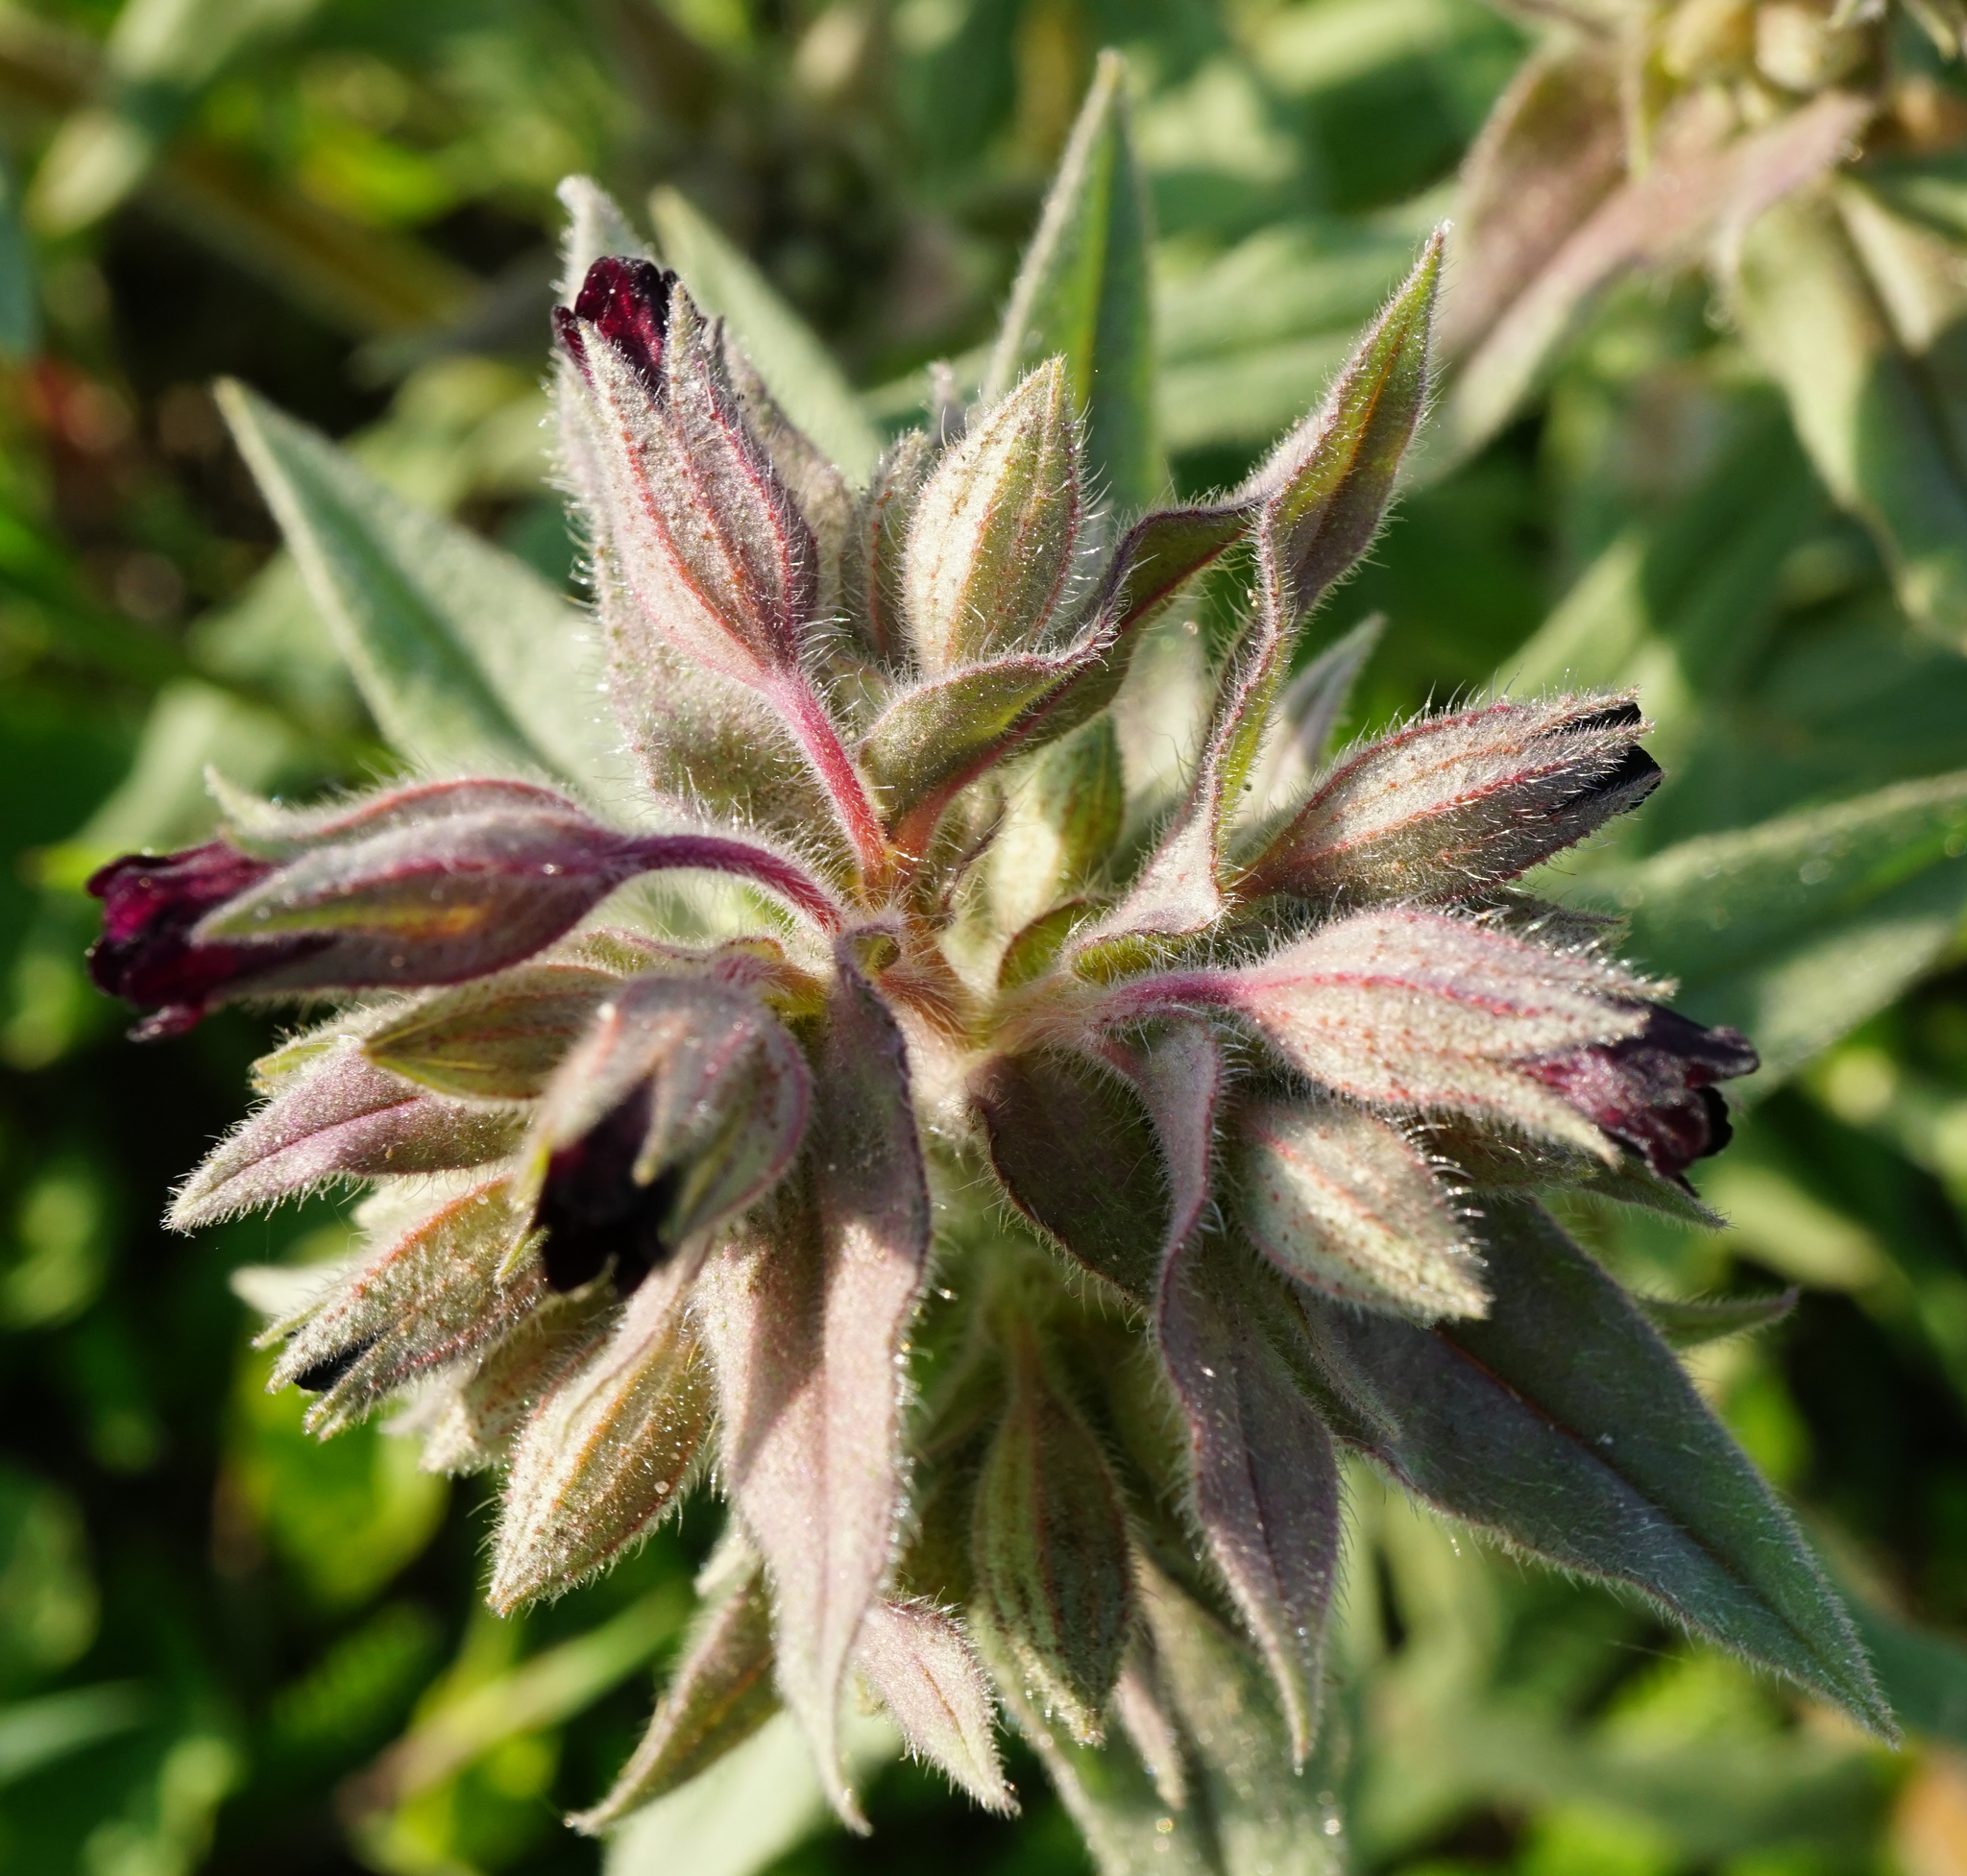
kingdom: Plantae
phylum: Tracheophyta
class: Magnoliopsida
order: Boraginales
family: Boraginaceae
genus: Nonea
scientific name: Nonea pulla
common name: Brown nonea
